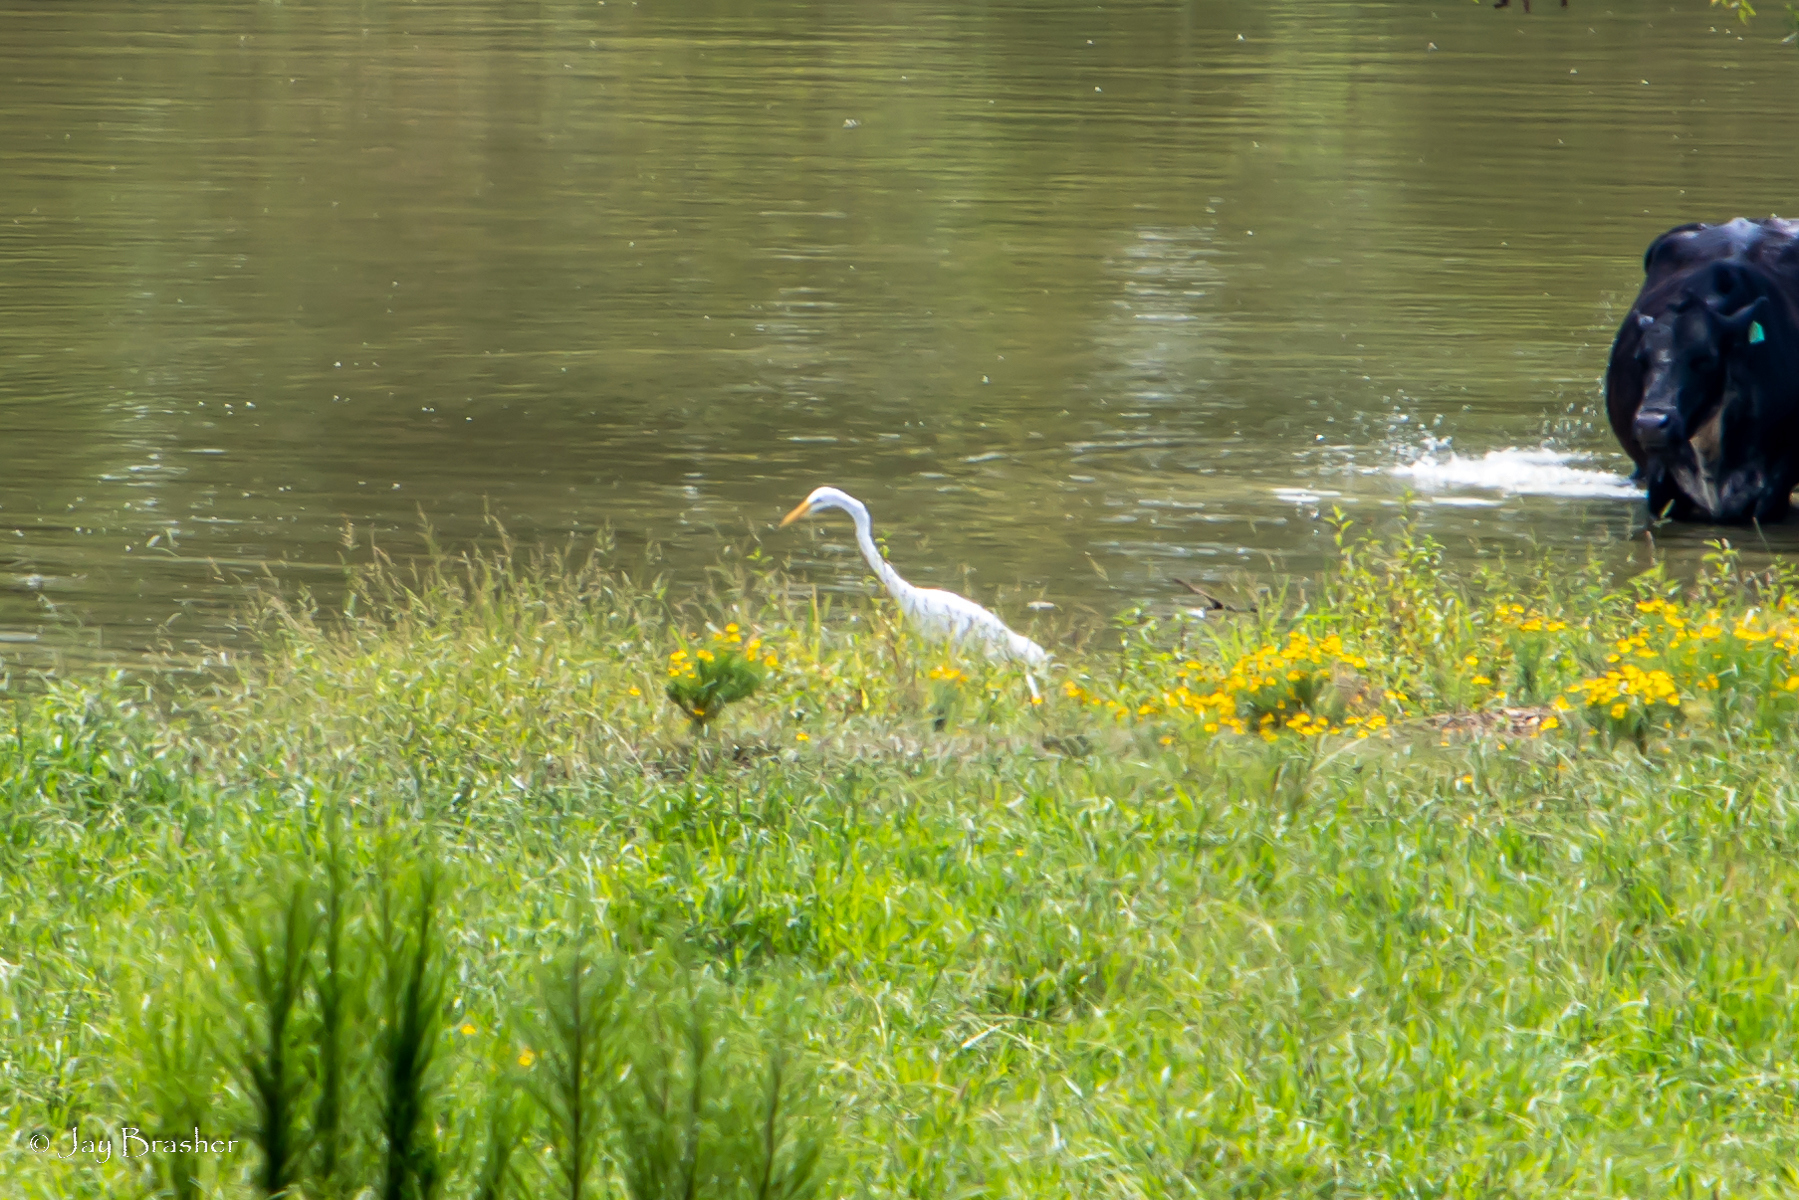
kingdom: Animalia
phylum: Chordata
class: Aves
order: Pelecaniformes
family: Ardeidae
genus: Ardea
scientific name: Ardea alba
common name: Great egret
